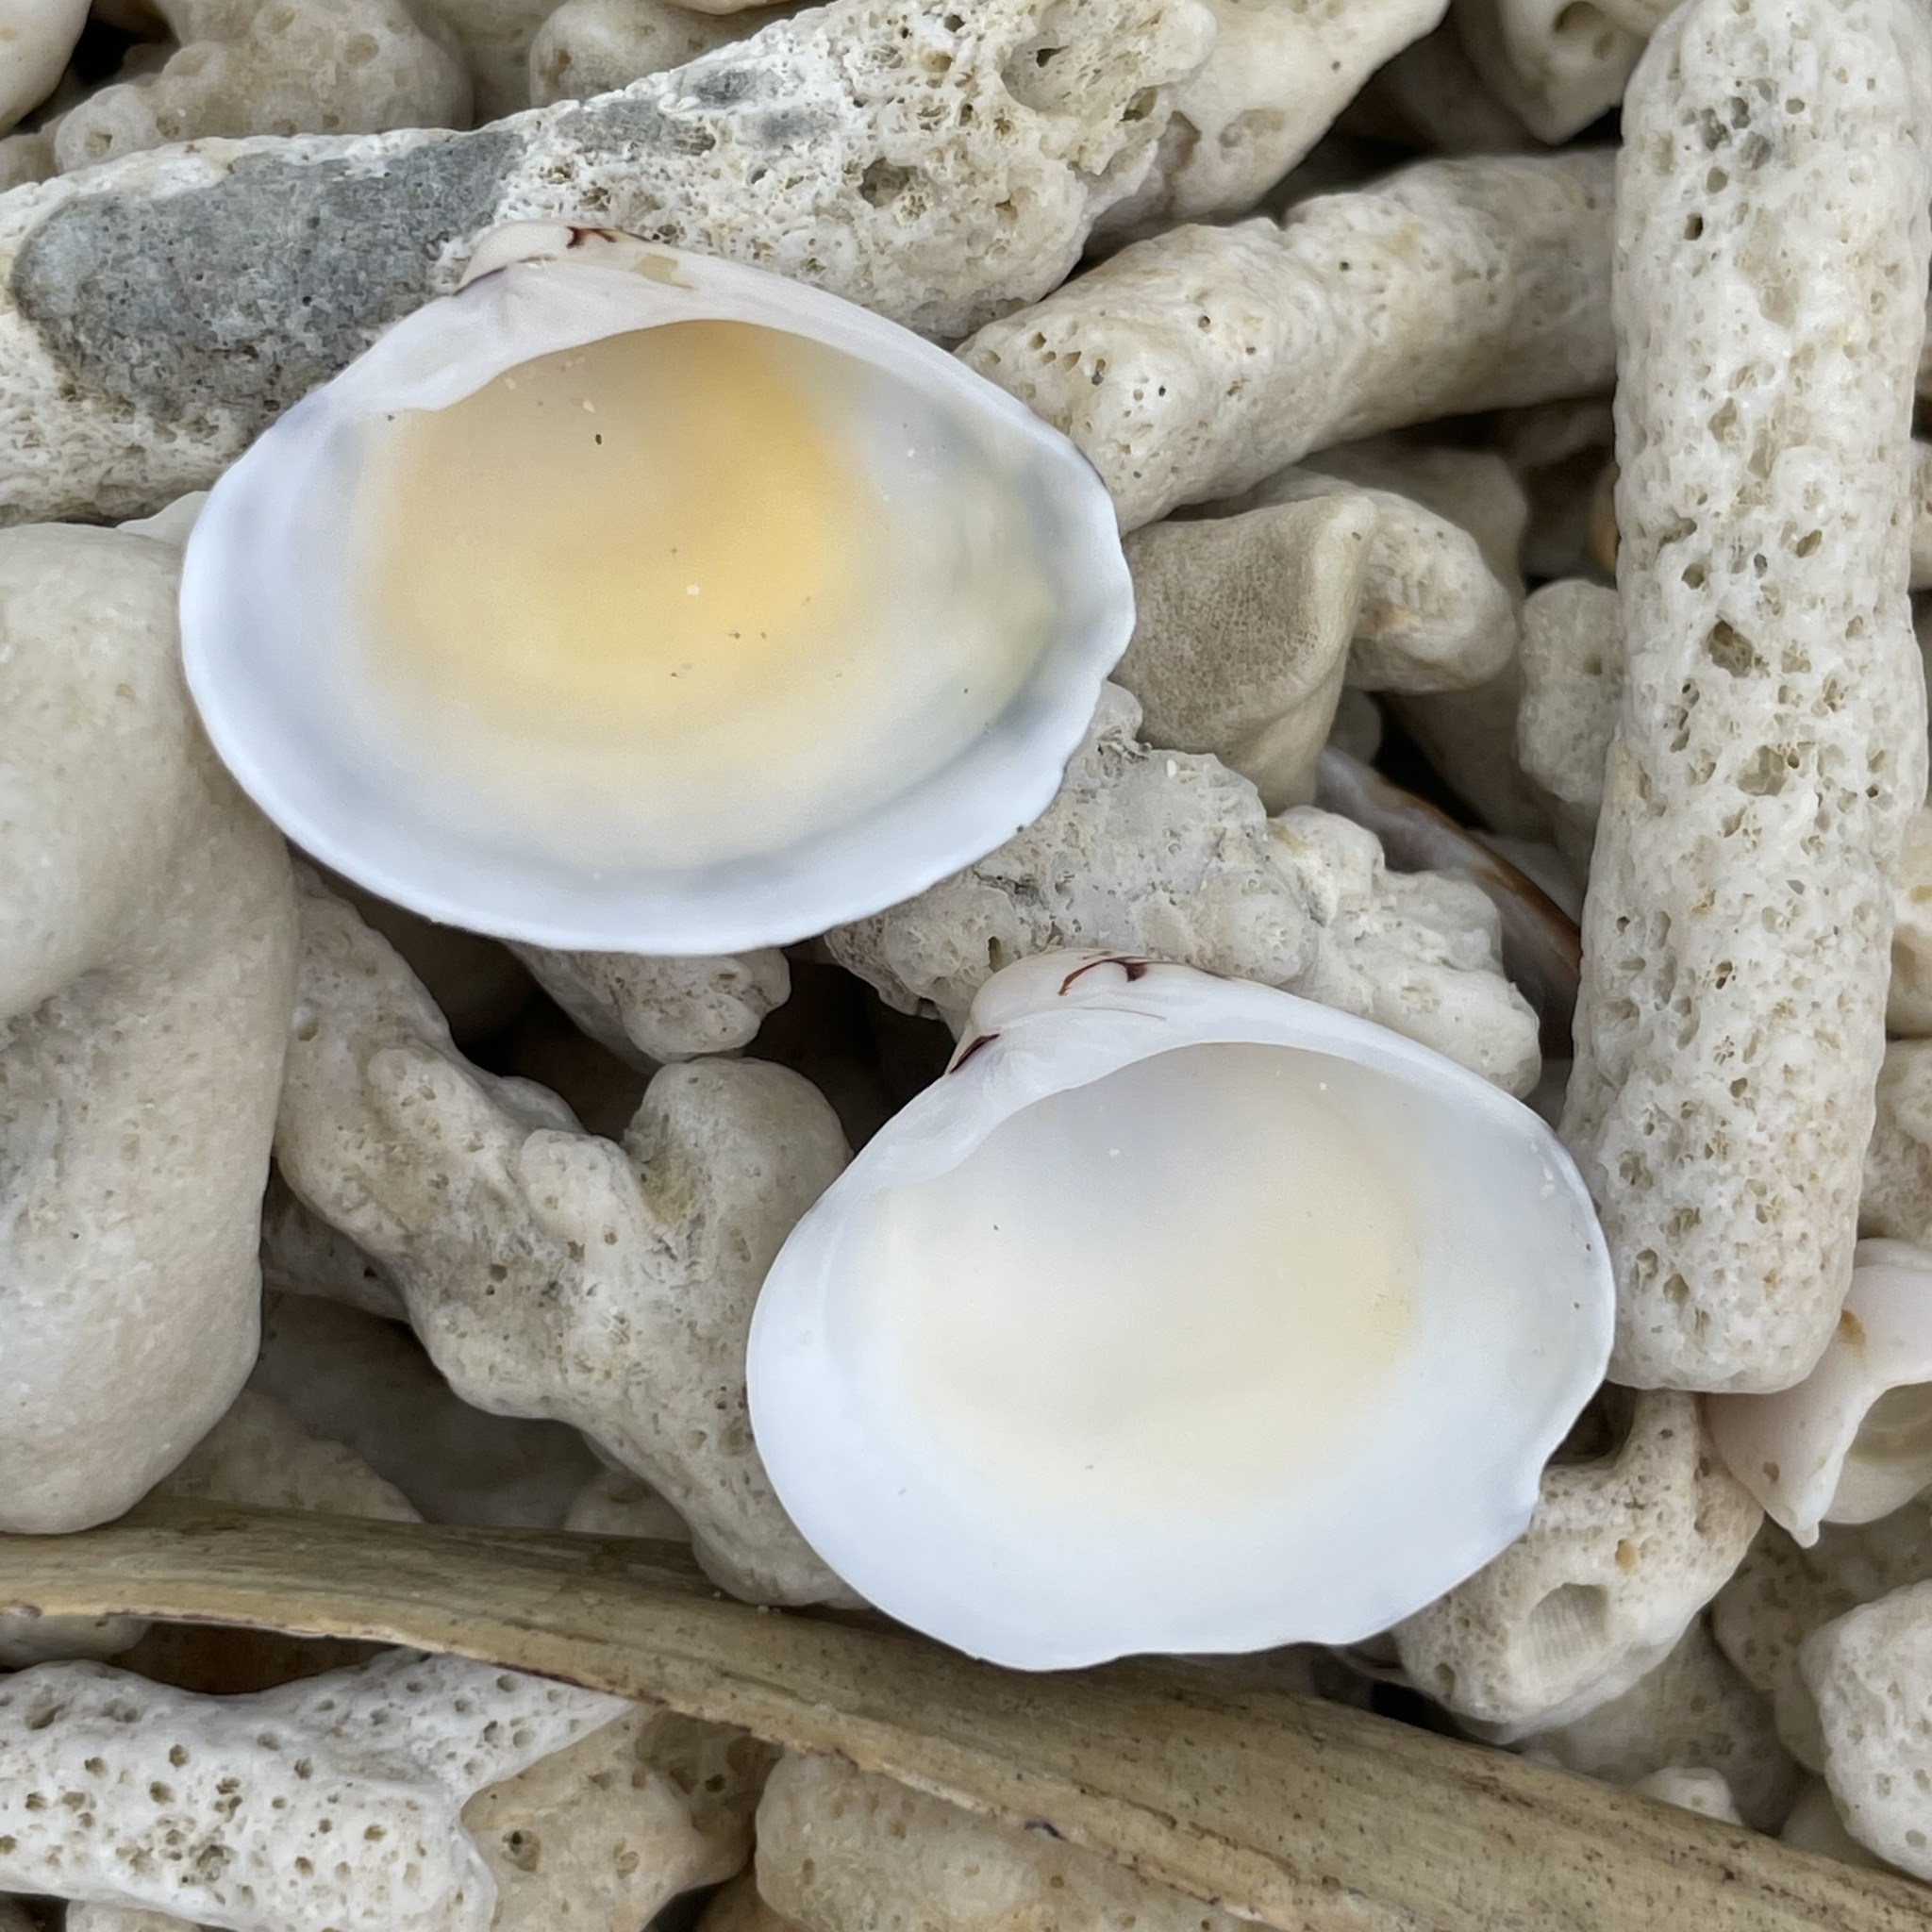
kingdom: Animalia
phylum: Mollusca
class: Bivalvia
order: Venerida
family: Veneridae
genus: Lioconcha
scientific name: Lioconcha fastigiata
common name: Clam
